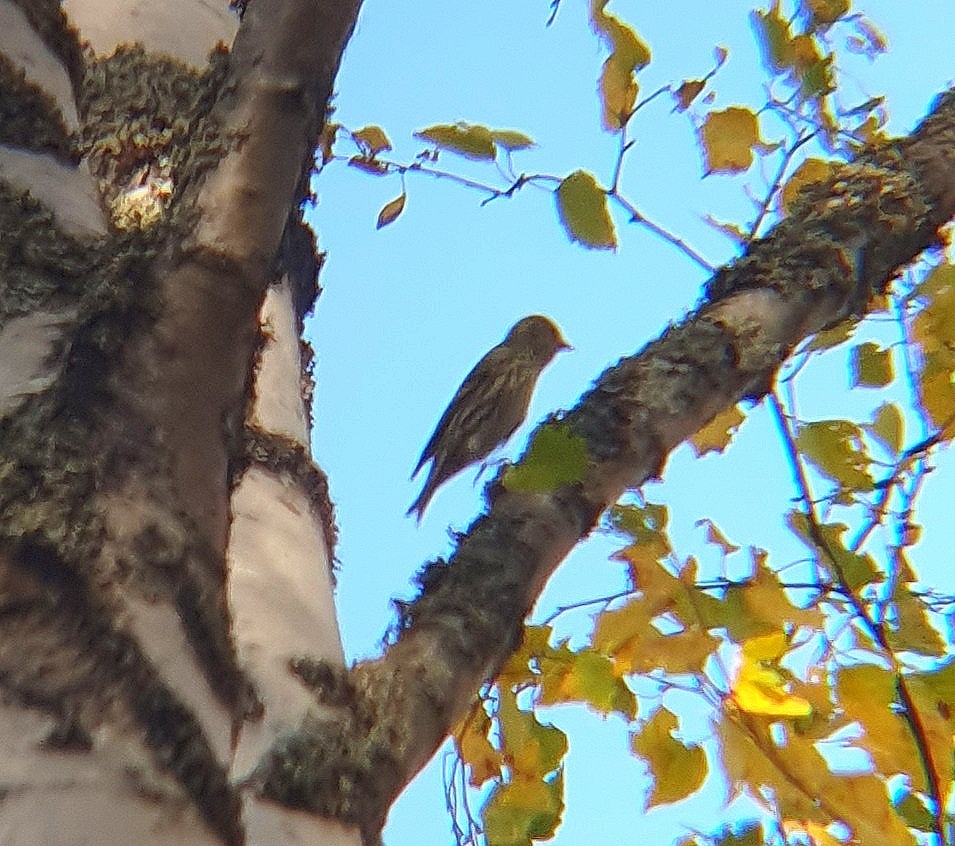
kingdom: Animalia
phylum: Chordata
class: Aves
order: Passeriformes
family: Fringillidae
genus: Spinus
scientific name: Spinus spinus
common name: Eurasian siskin
